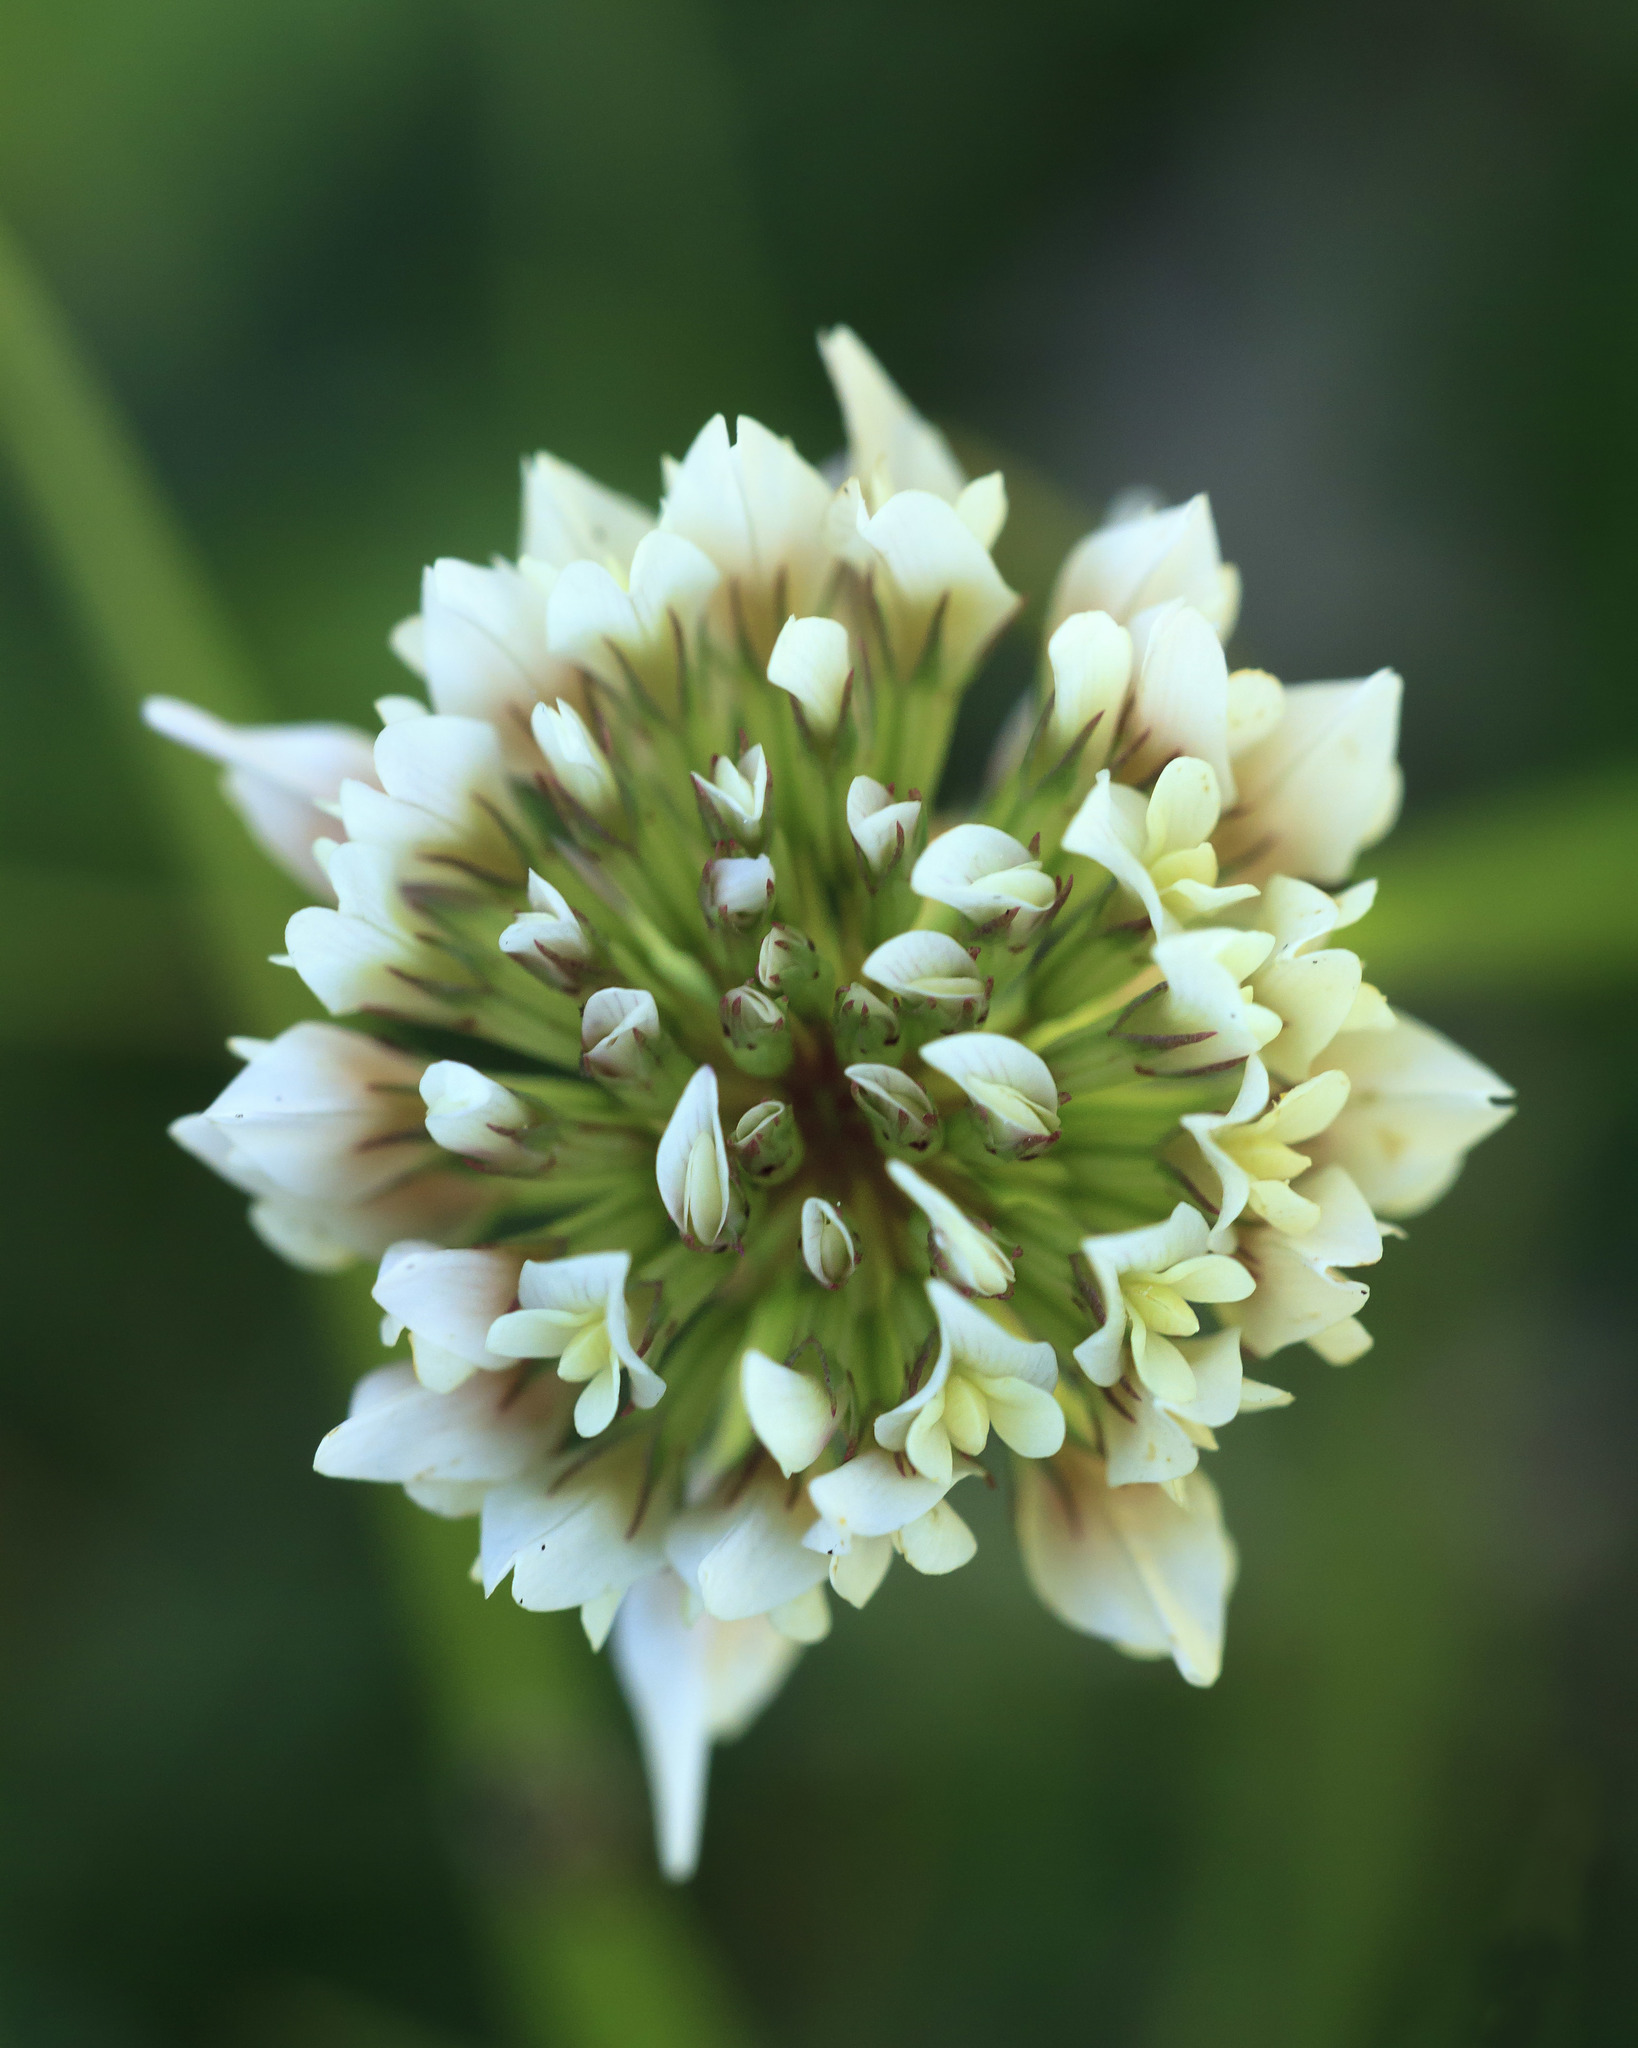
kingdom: Plantae
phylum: Tracheophyta
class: Magnoliopsida
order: Fabales
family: Fabaceae
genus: Trifolium
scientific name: Trifolium repens
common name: White clover
